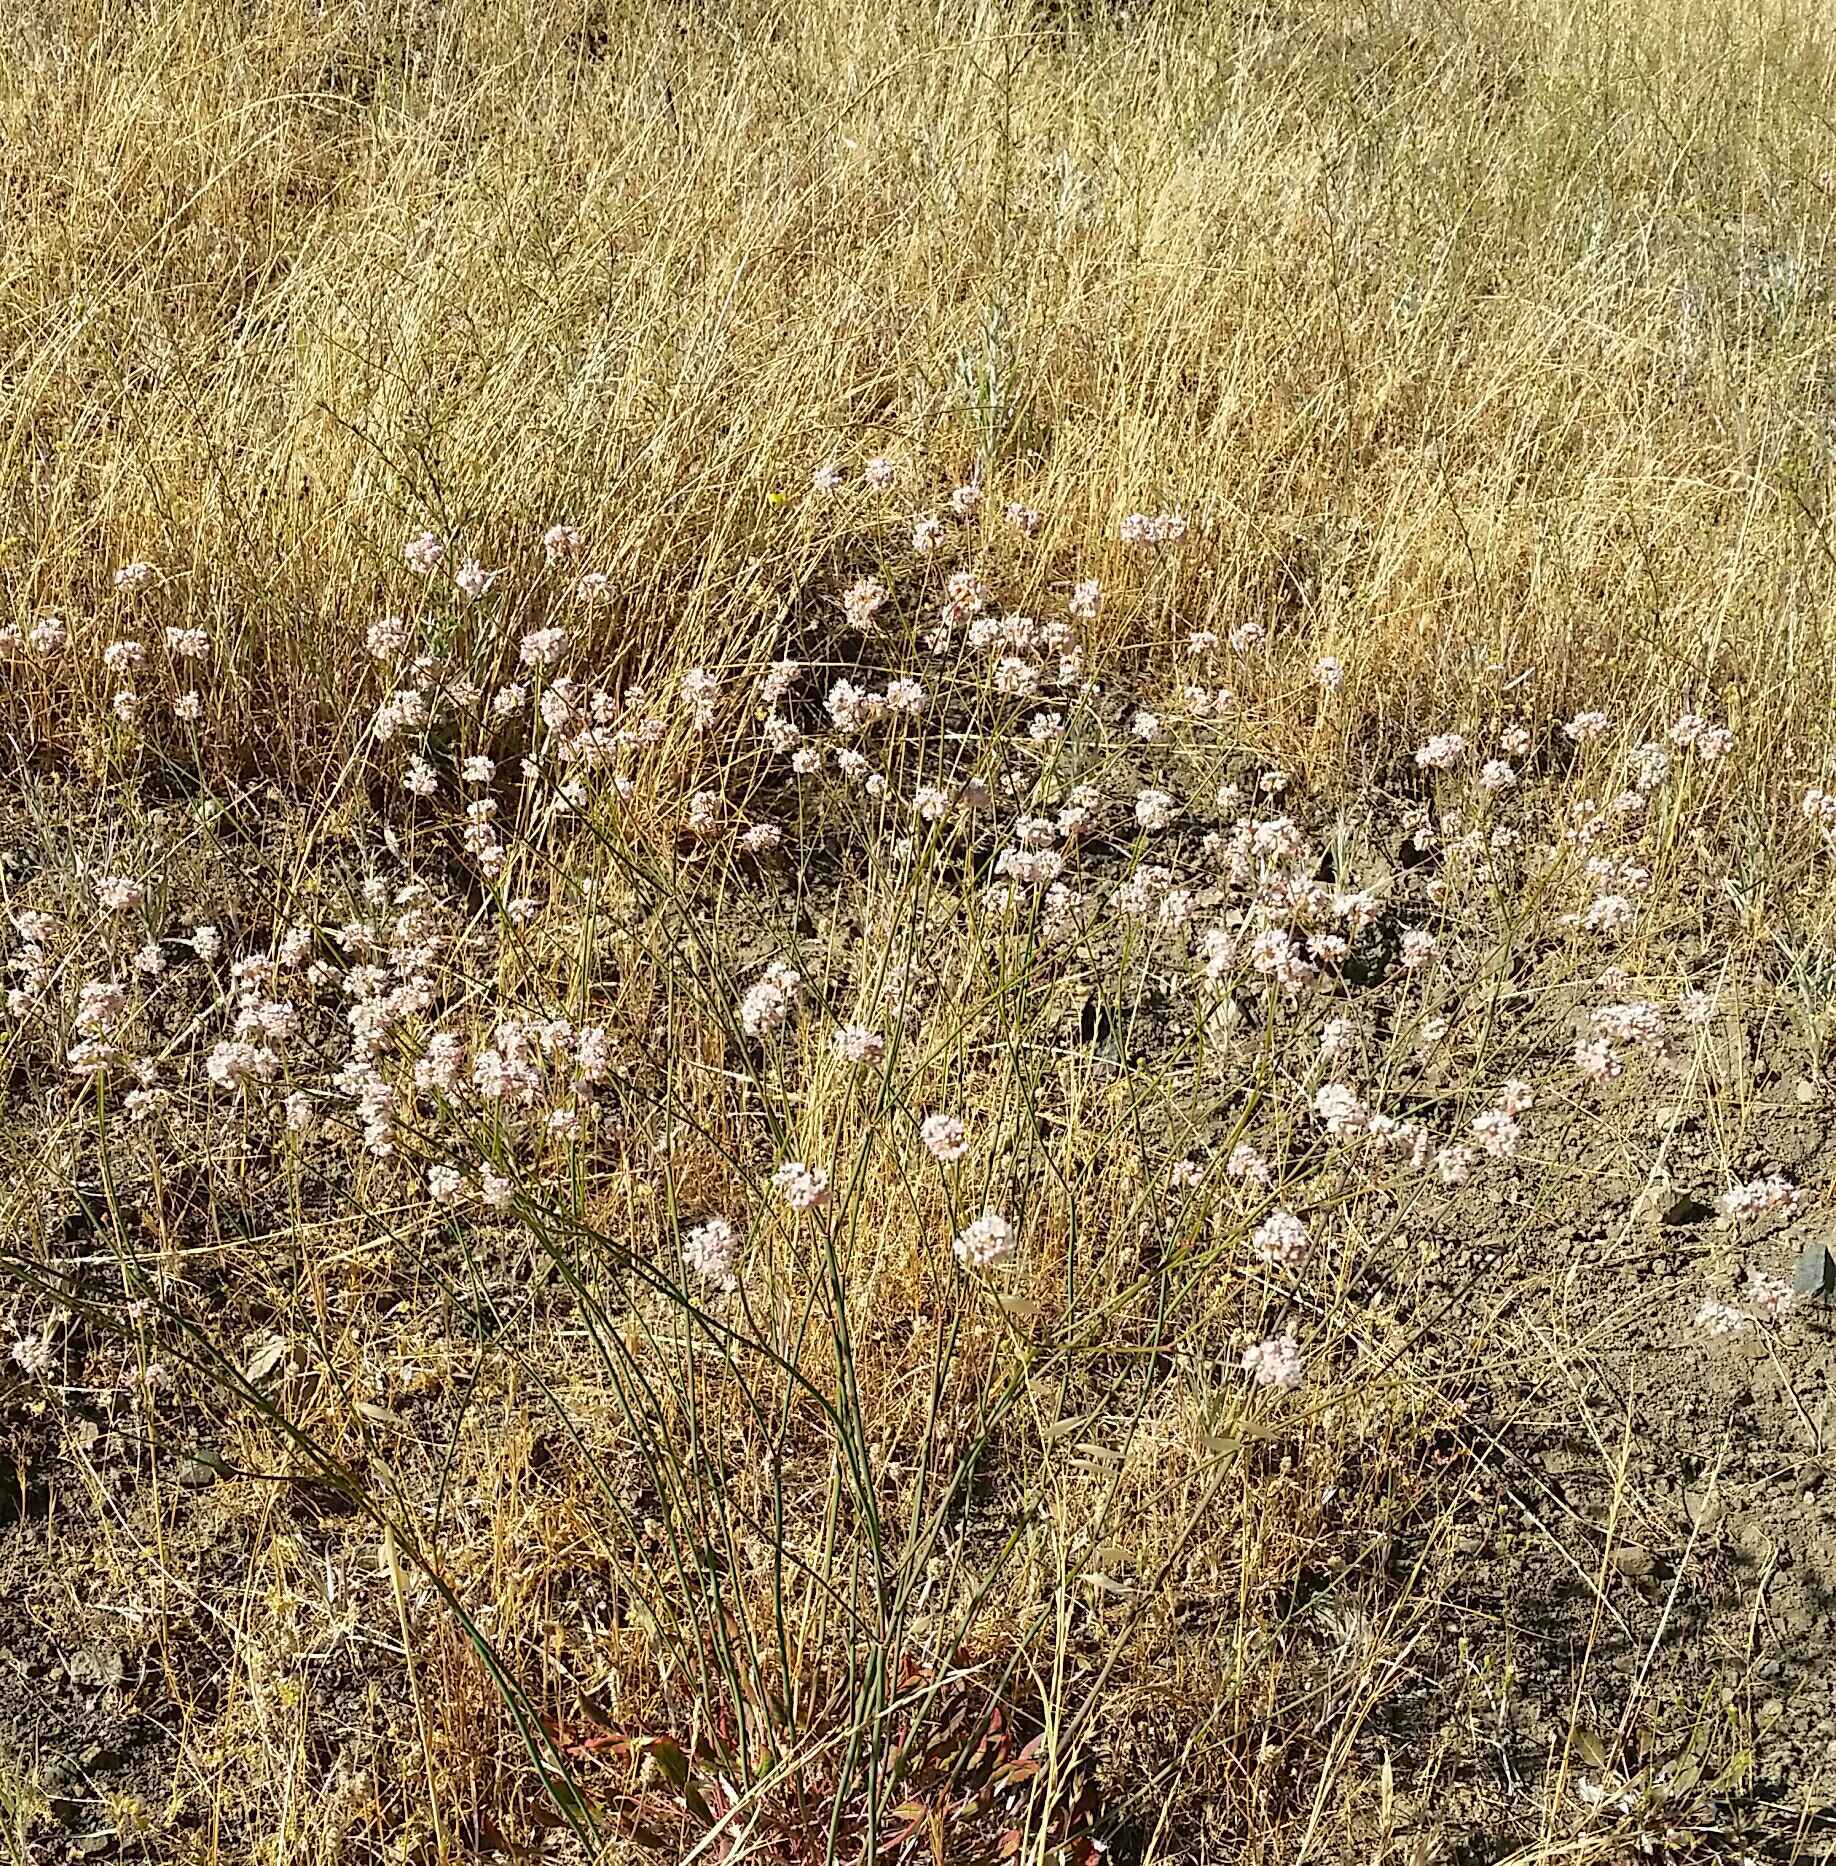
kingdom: Plantae
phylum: Tracheophyta
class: Magnoliopsida
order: Caryophyllales
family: Polygonaceae
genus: Eriogonum
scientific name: Eriogonum nudum
